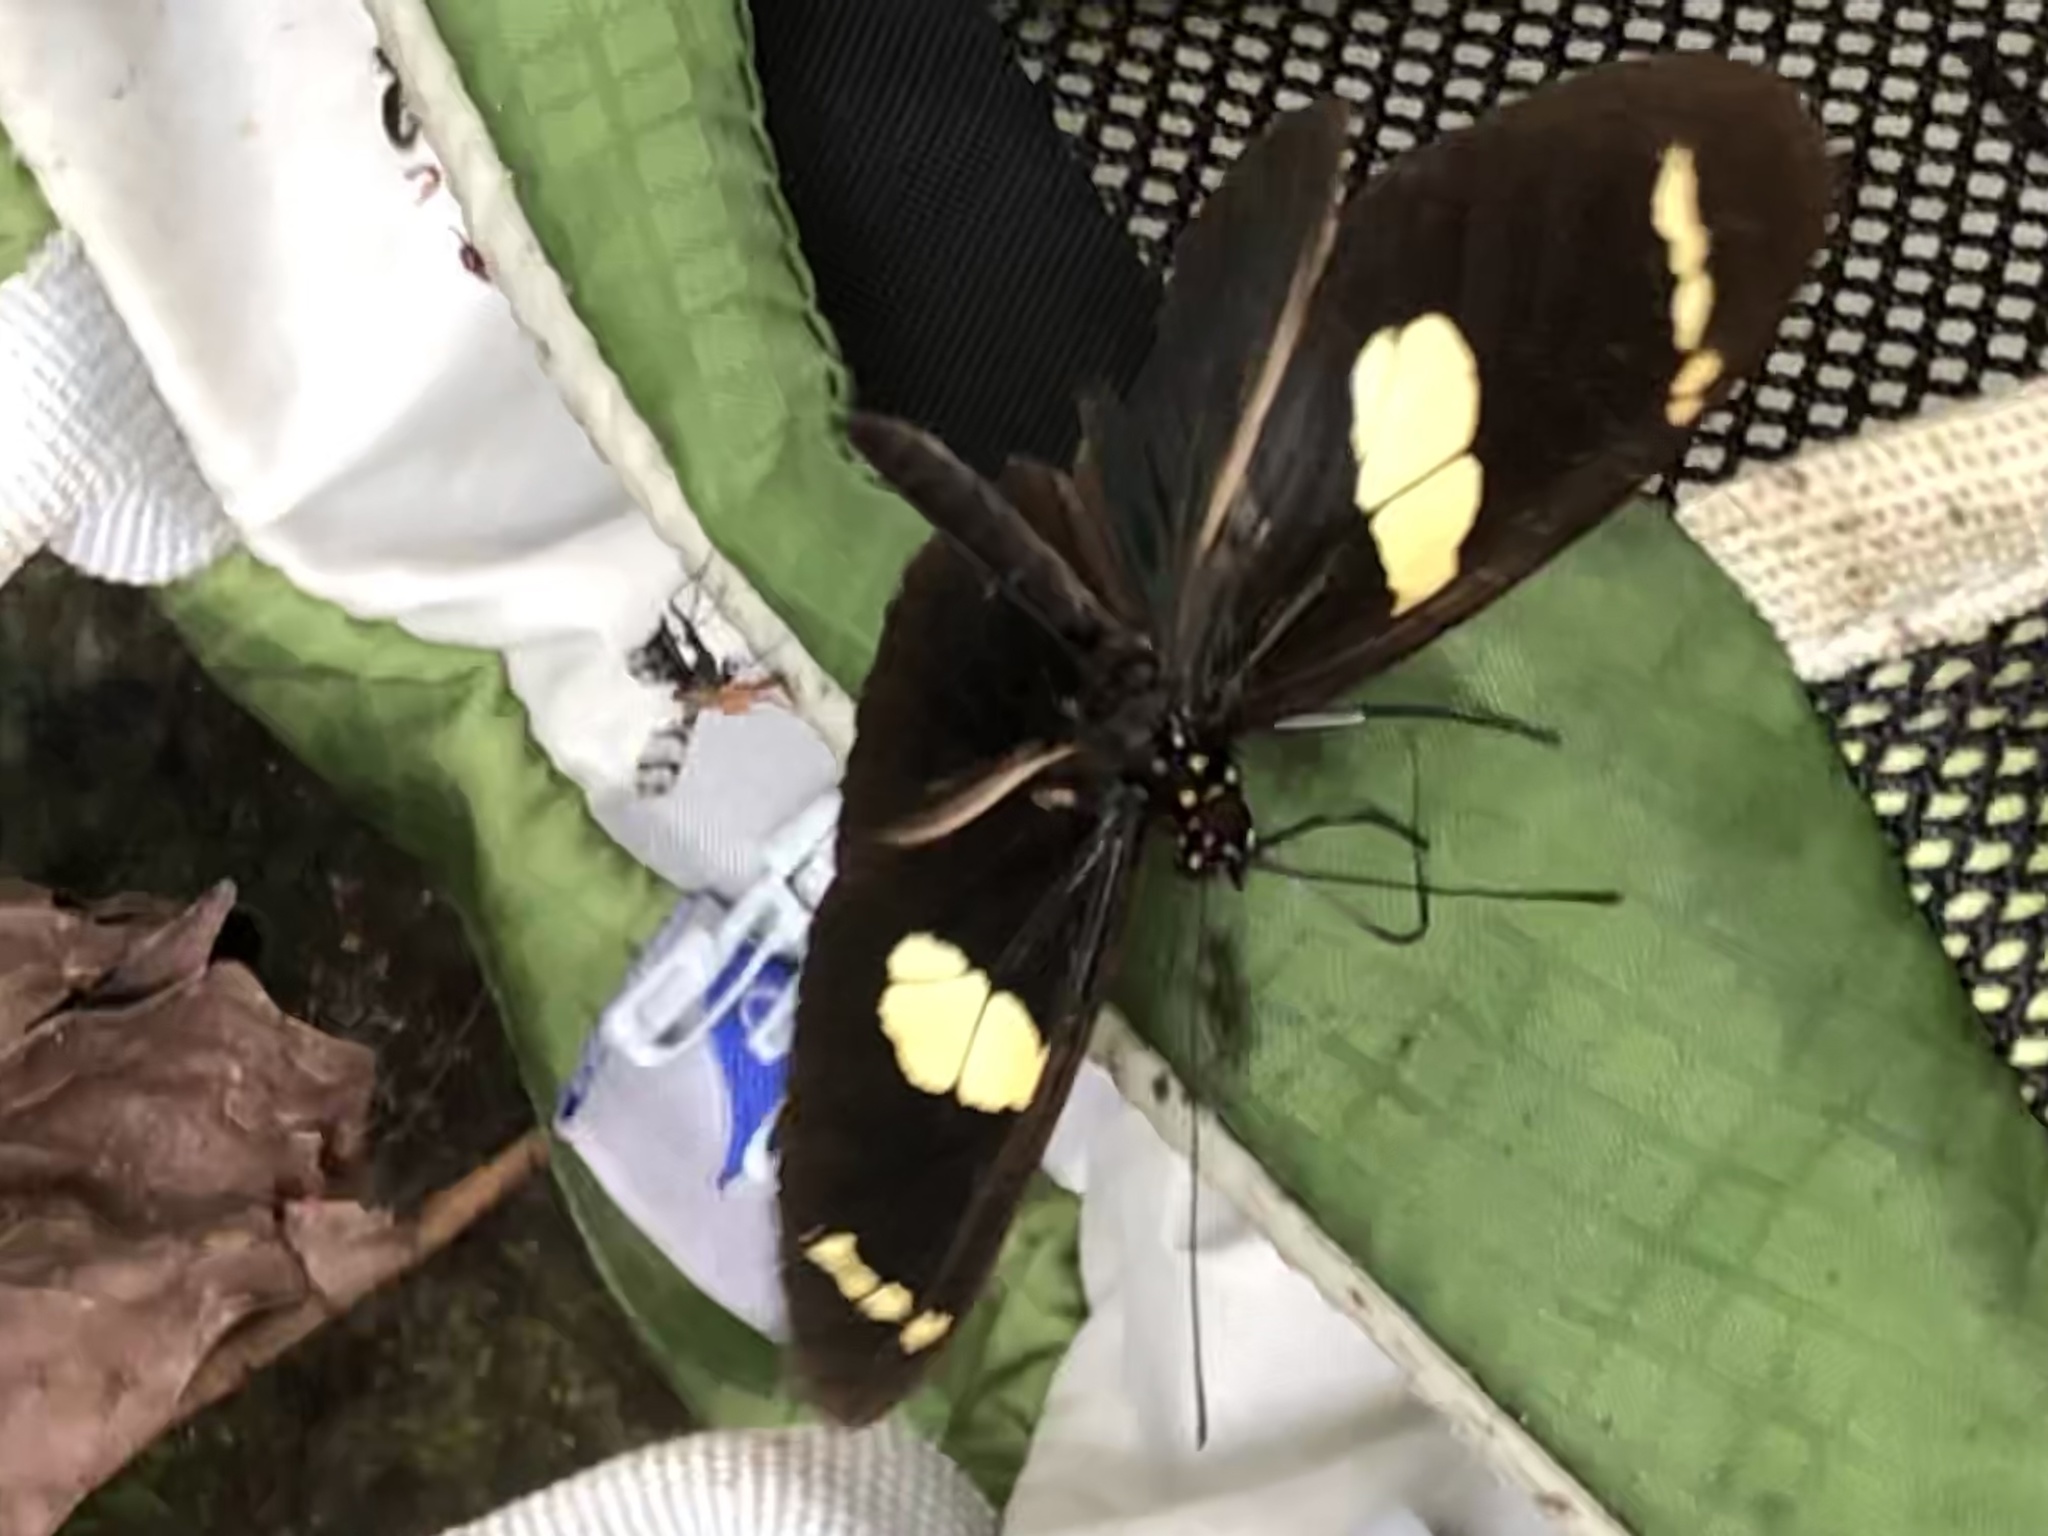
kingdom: Animalia
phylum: Arthropoda
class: Insecta
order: Lepidoptera
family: Nymphalidae
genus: Heliconius
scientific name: Heliconius wallacei
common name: Wallace's longwing
